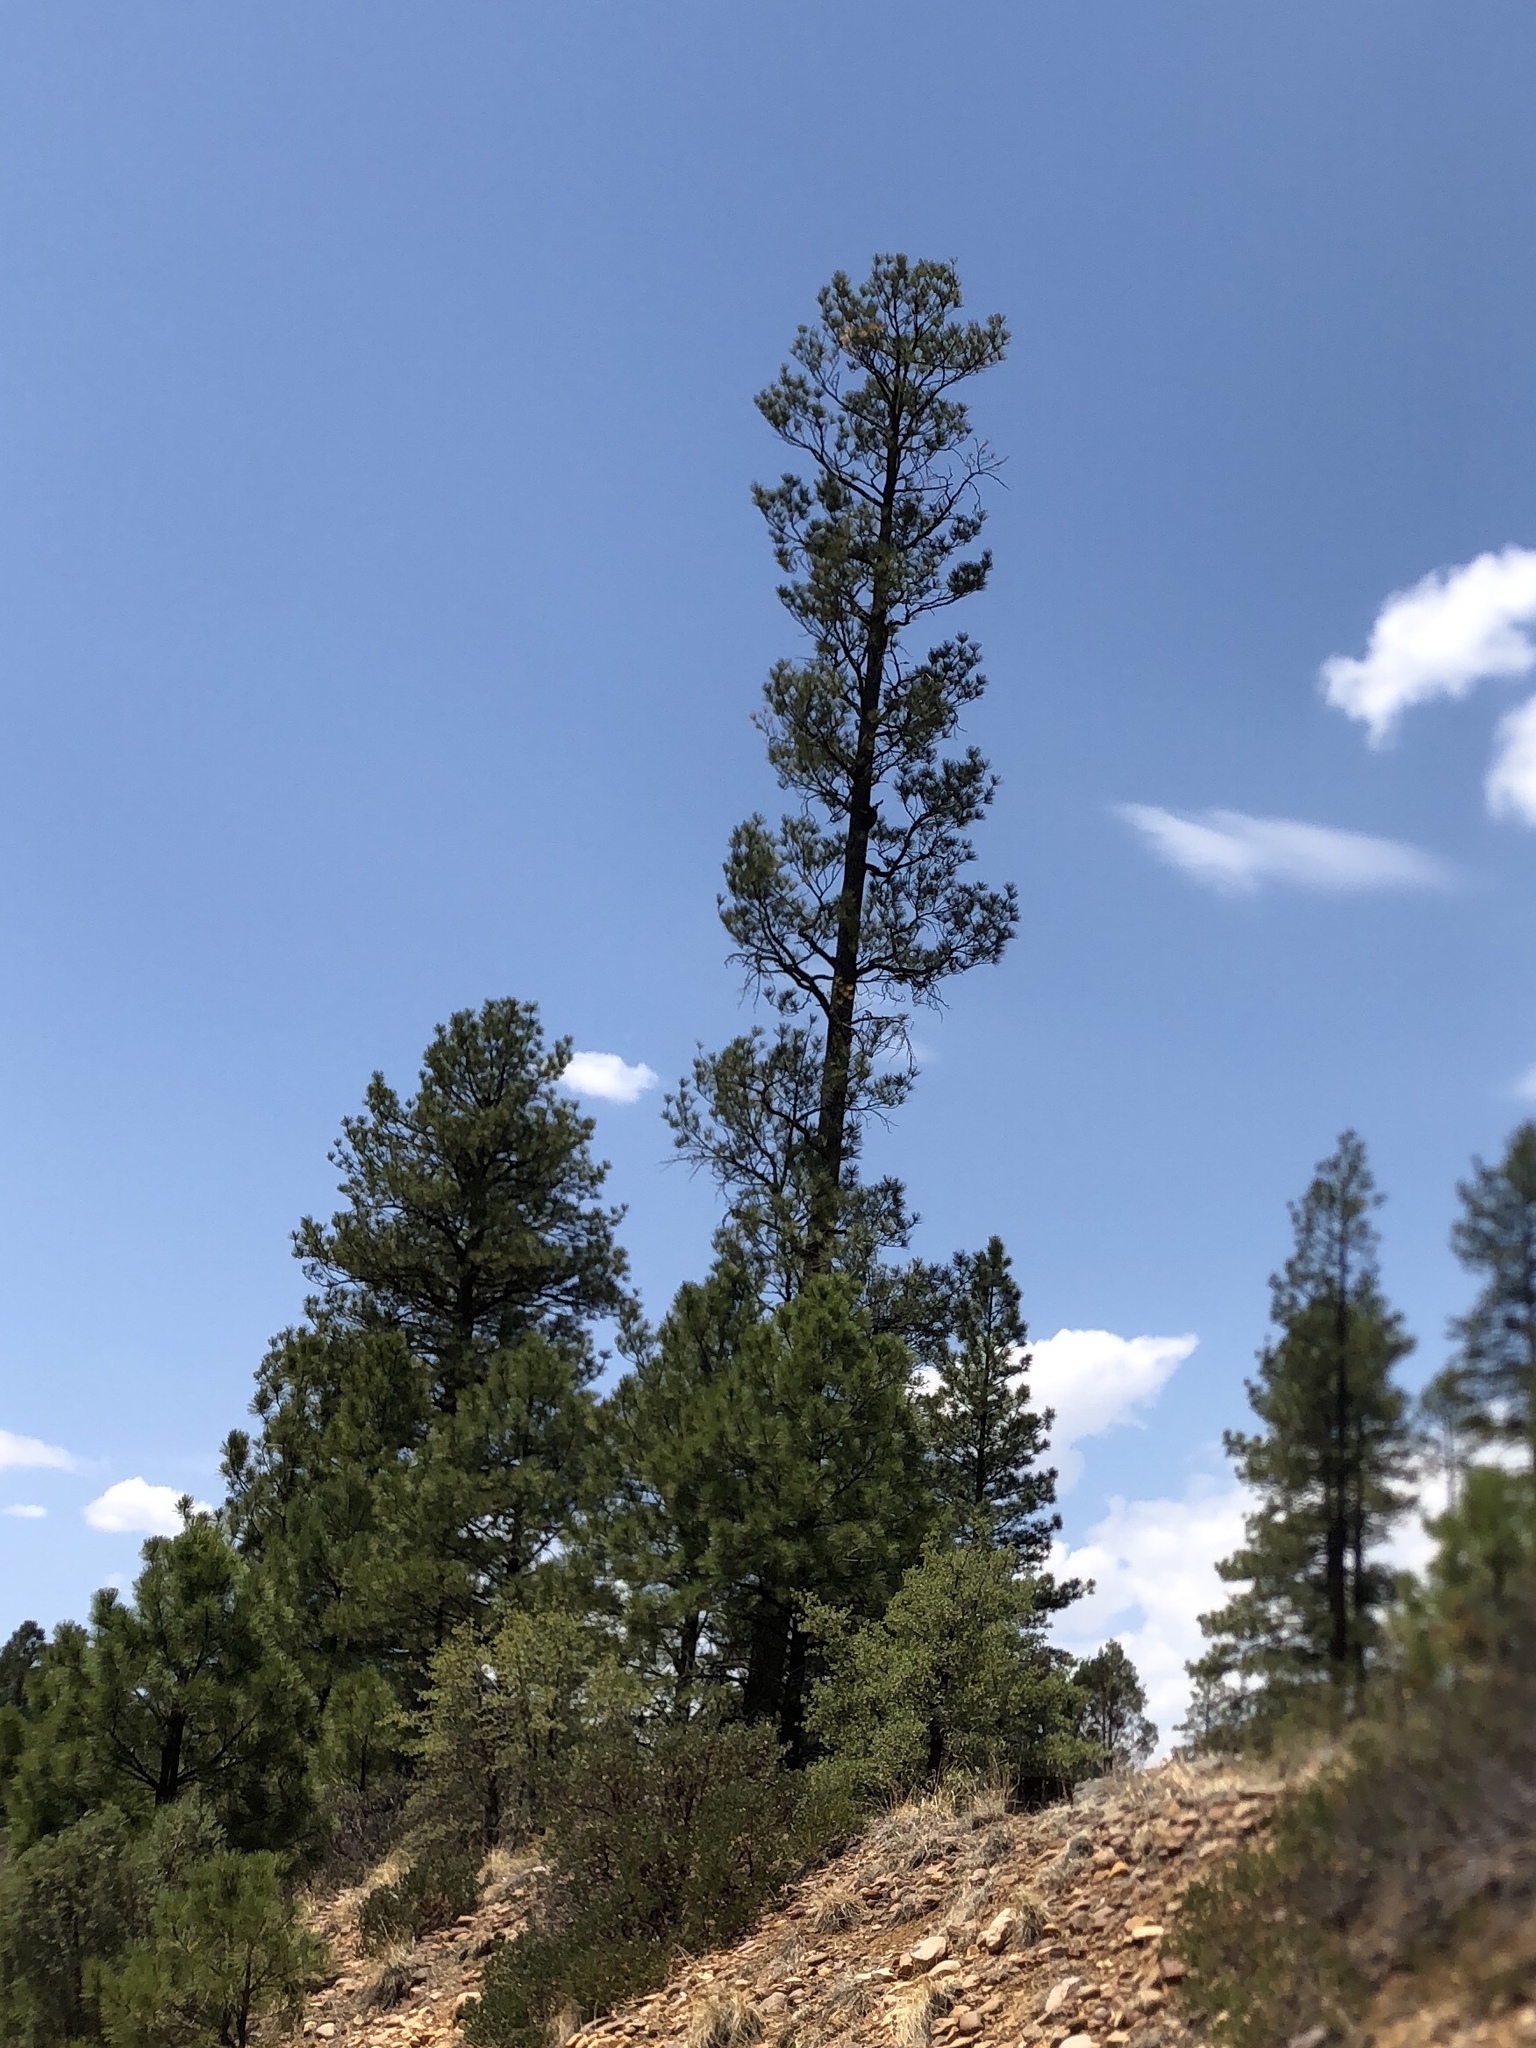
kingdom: Plantae
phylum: Tracheophyta
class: Pinopsida
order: Pinales
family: Pinaceae
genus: Pinus
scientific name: Pinus ponderosa
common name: Western yellow-pine
